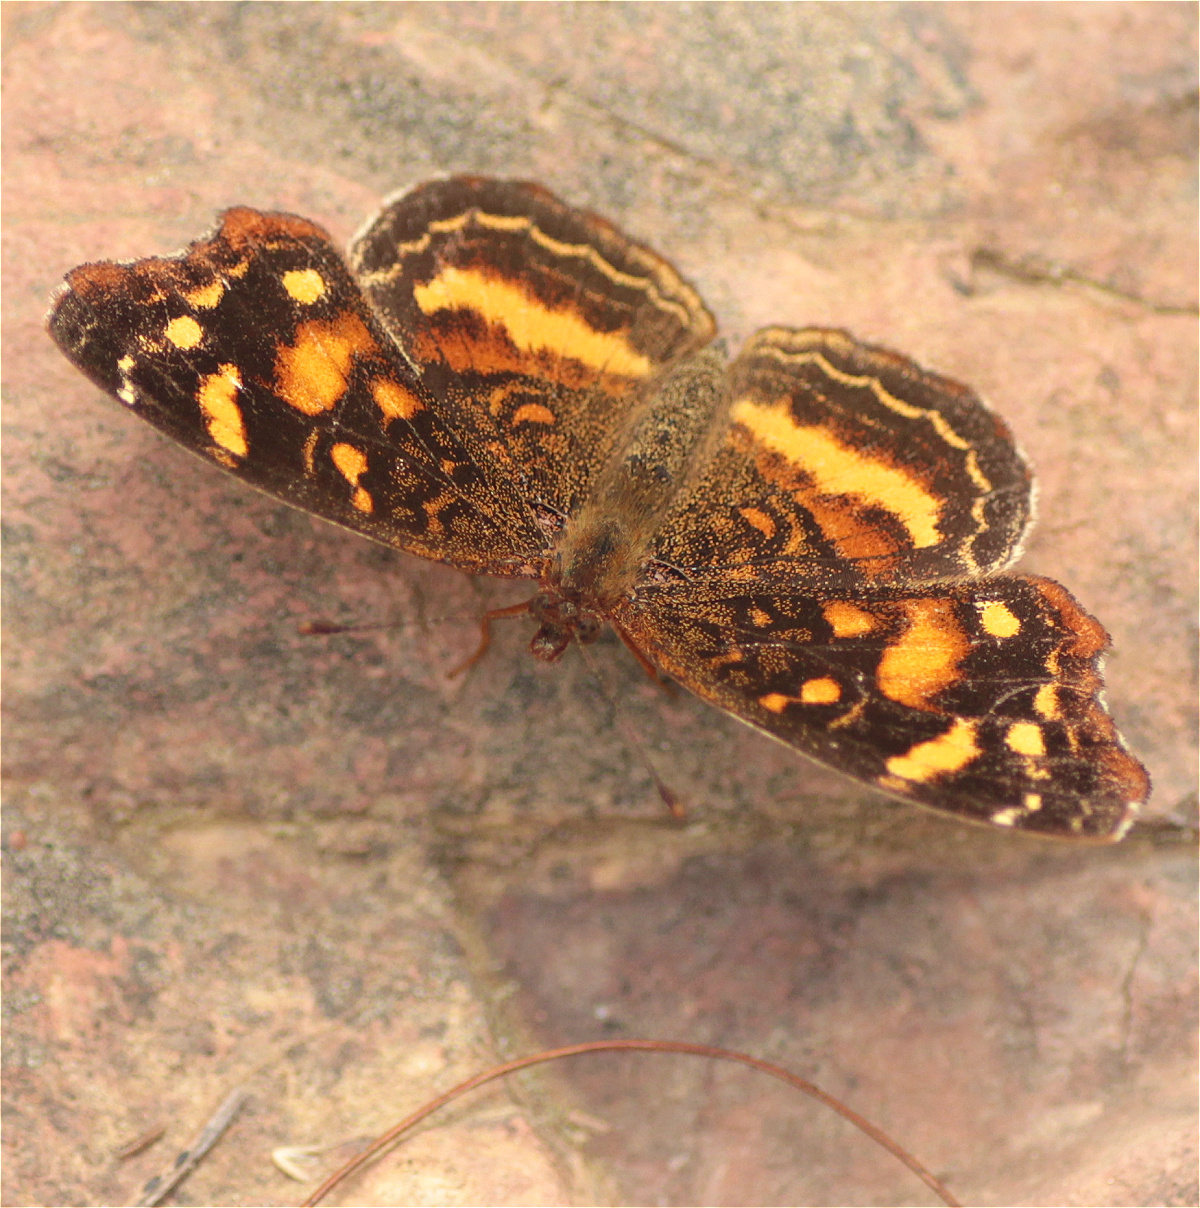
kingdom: Animalia
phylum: Arthropoda
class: Insecta
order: Lepidoptera
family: Nymphalidae
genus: Anthanassa
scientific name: Anthanassa drusilla
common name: Orange-patched crescent
